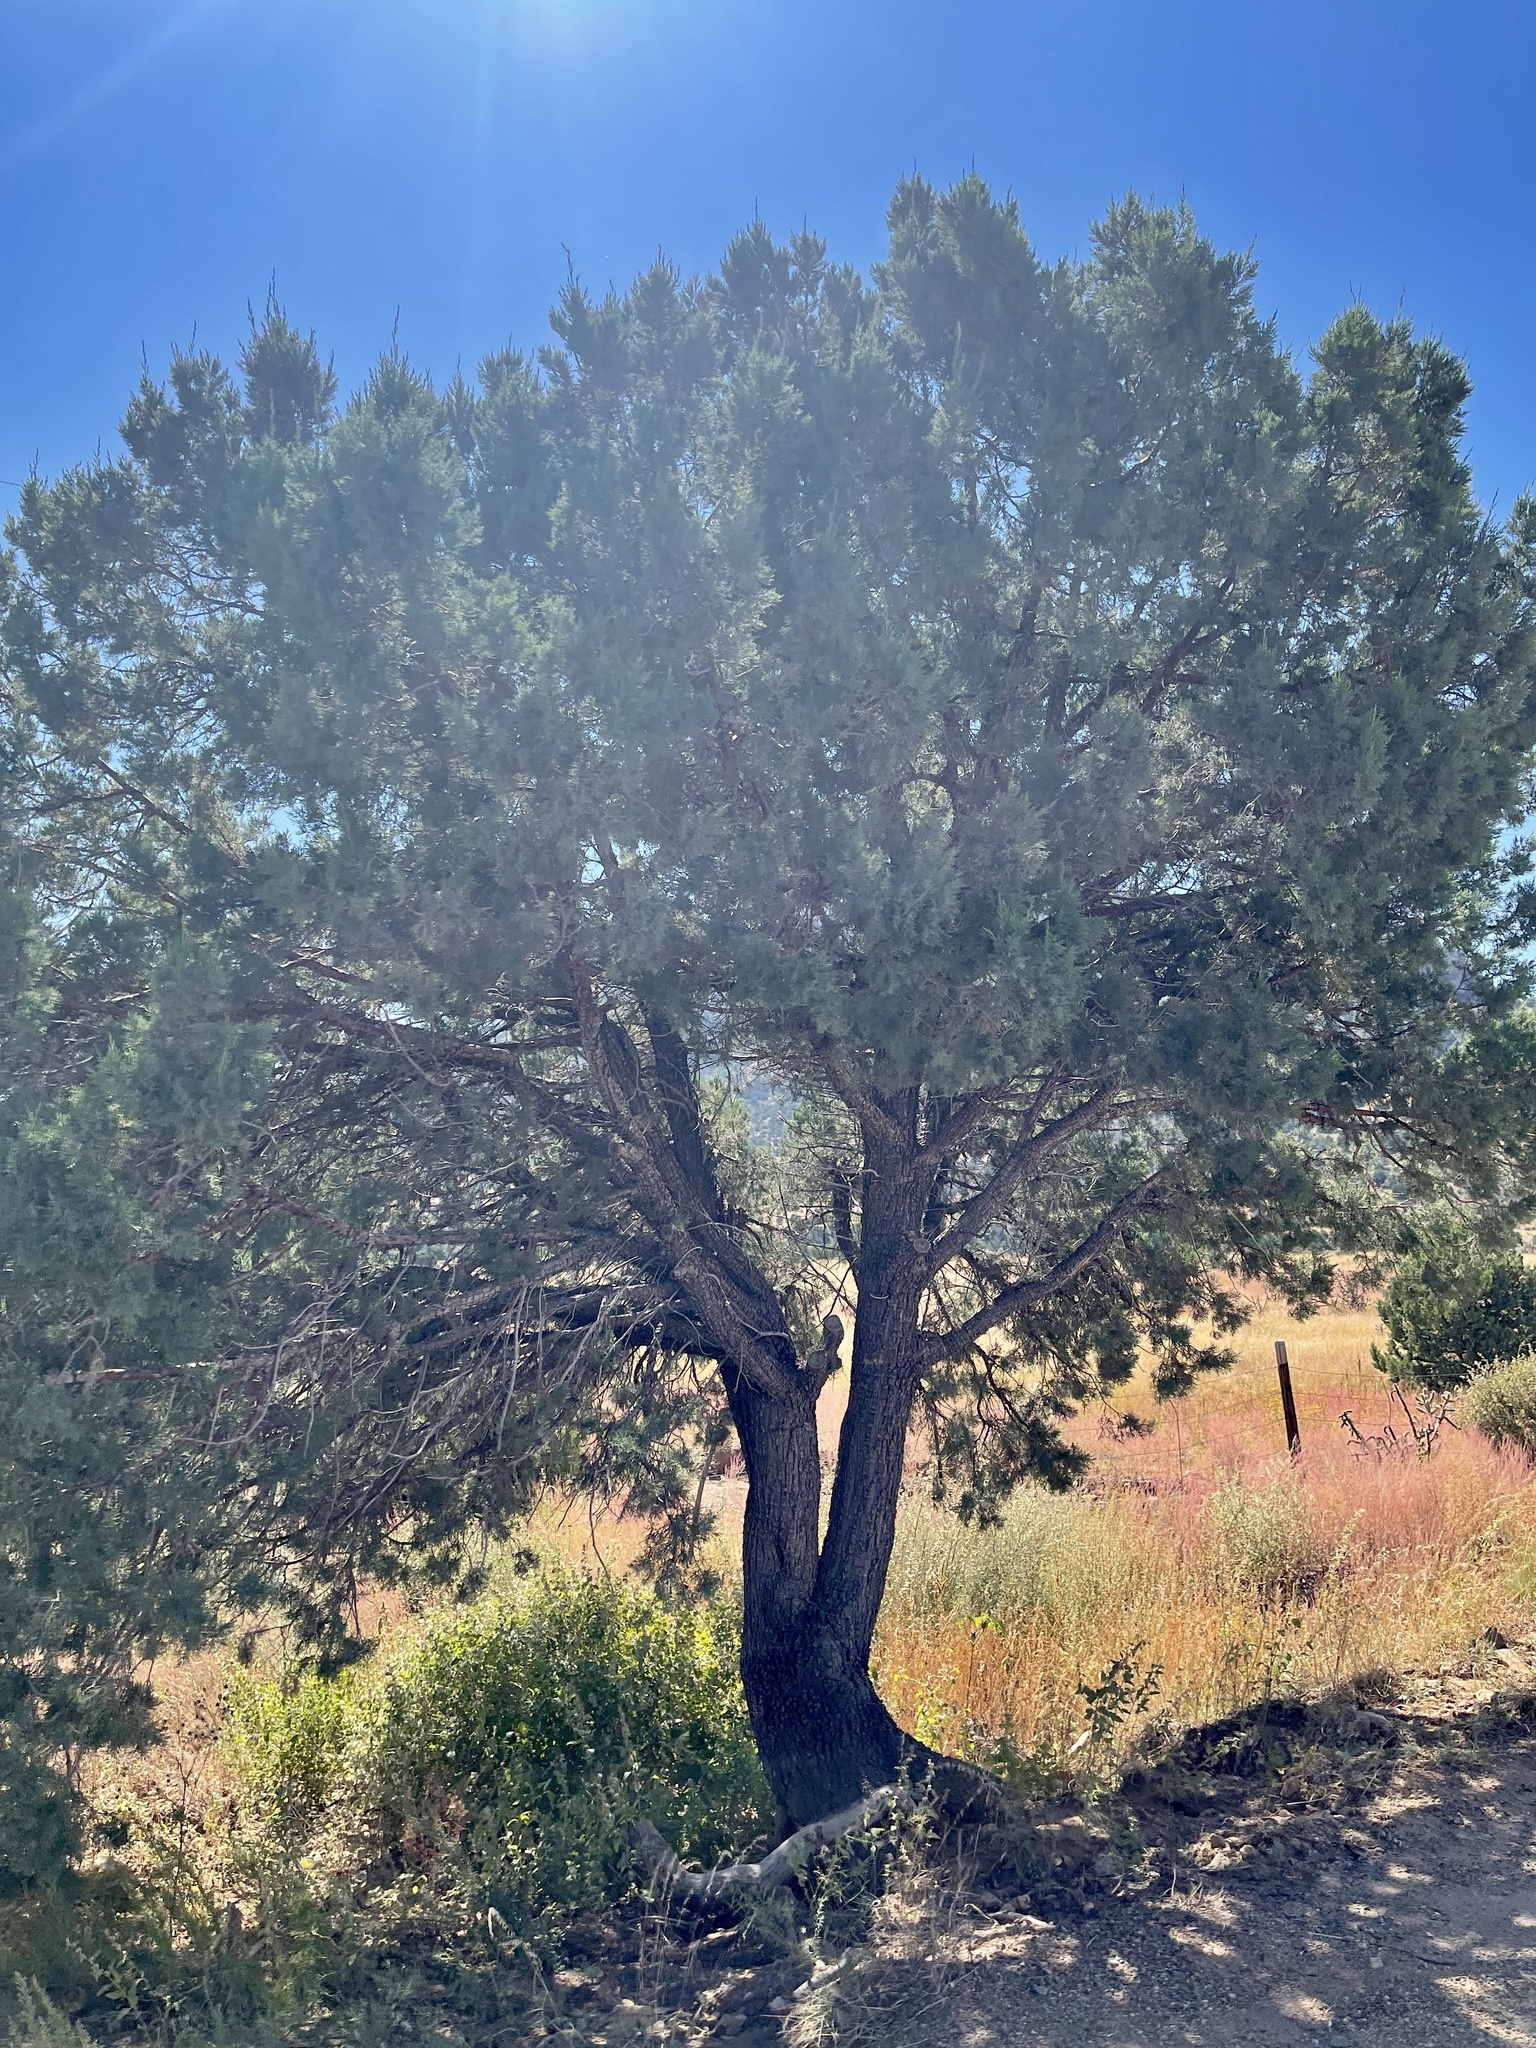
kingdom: Plantae
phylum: Tracheophyta
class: Pinopsida
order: Pinales
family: Cupressaceae
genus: Juniperus
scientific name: Juniperus deppeana
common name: Alligator juniper
